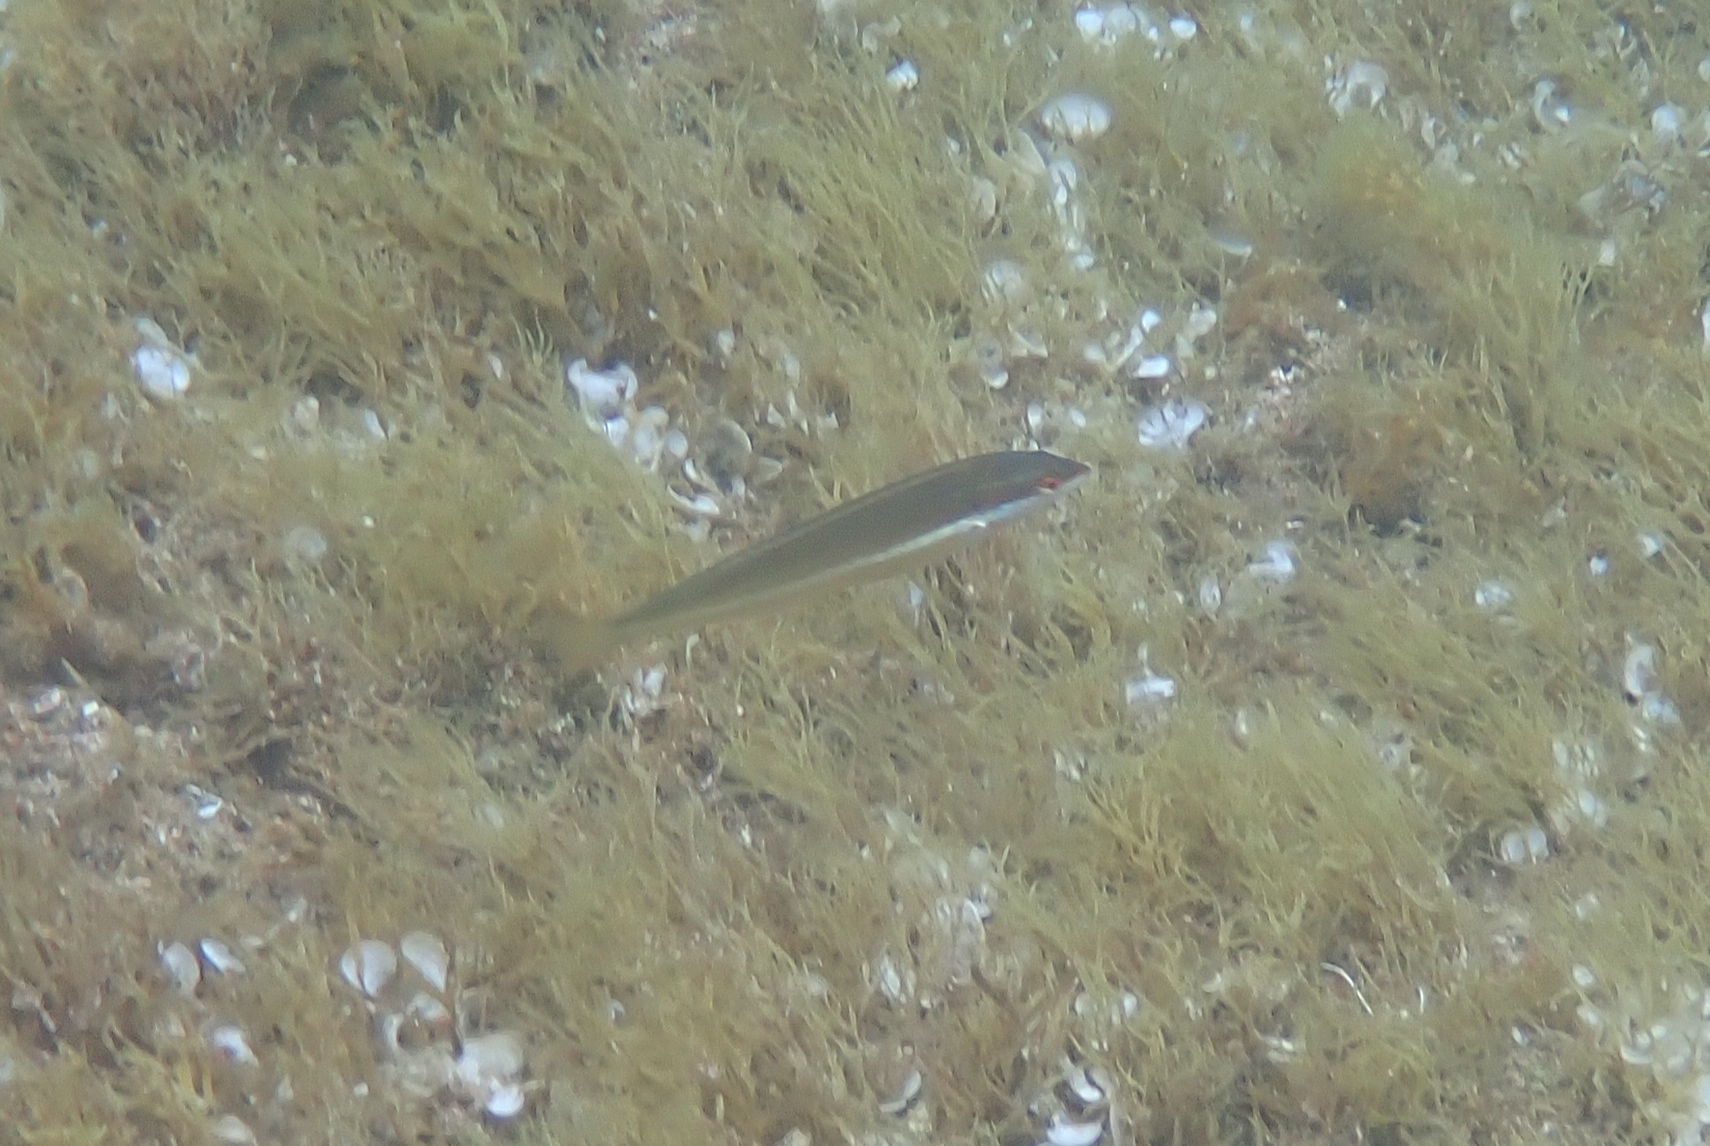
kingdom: Animalia
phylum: Chordata
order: Perciformes
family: Labridae
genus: Coris
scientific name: Coris julis
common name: Rainbow wrasse
